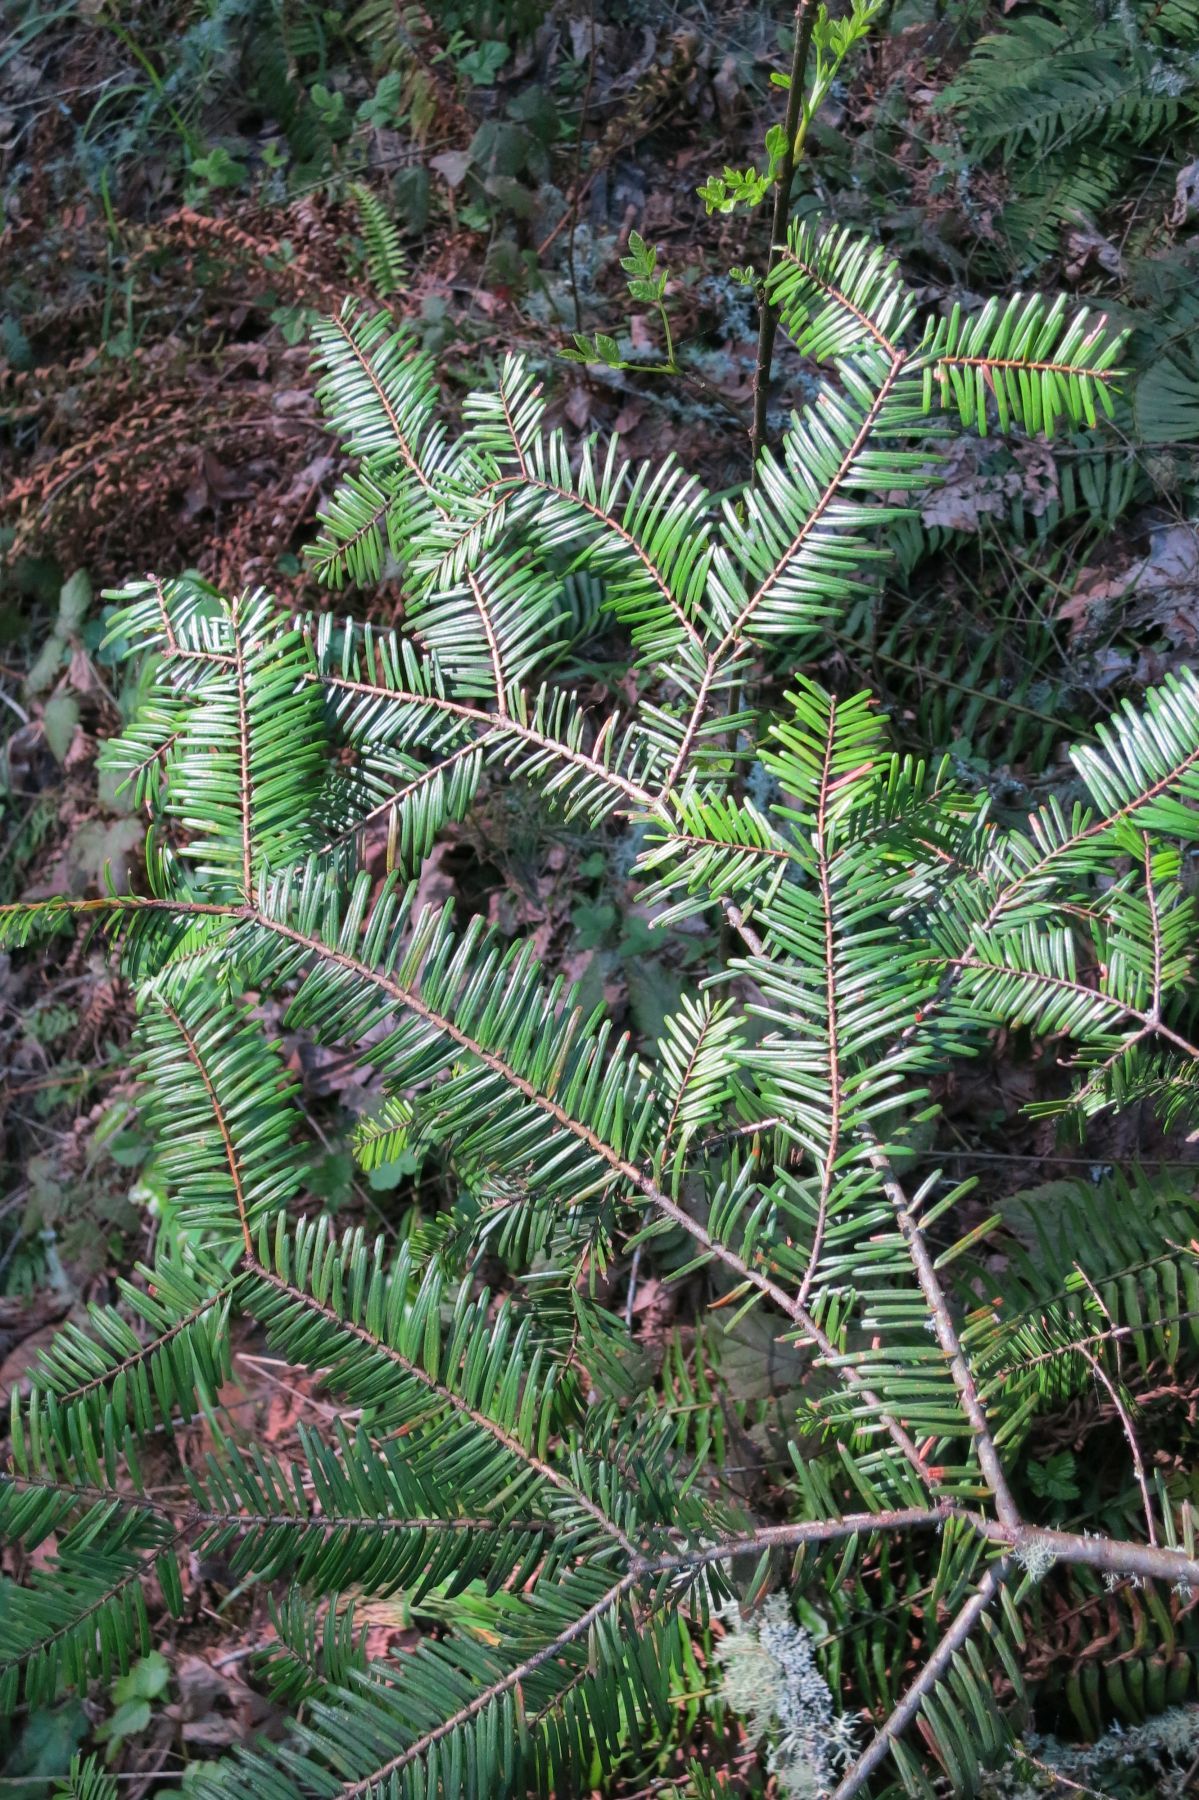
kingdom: Plantae
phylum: Tracheophyta
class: Pinopsida
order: Pinales
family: Pinaceae
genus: Abies
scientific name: Abies grandis
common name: Giant fir
